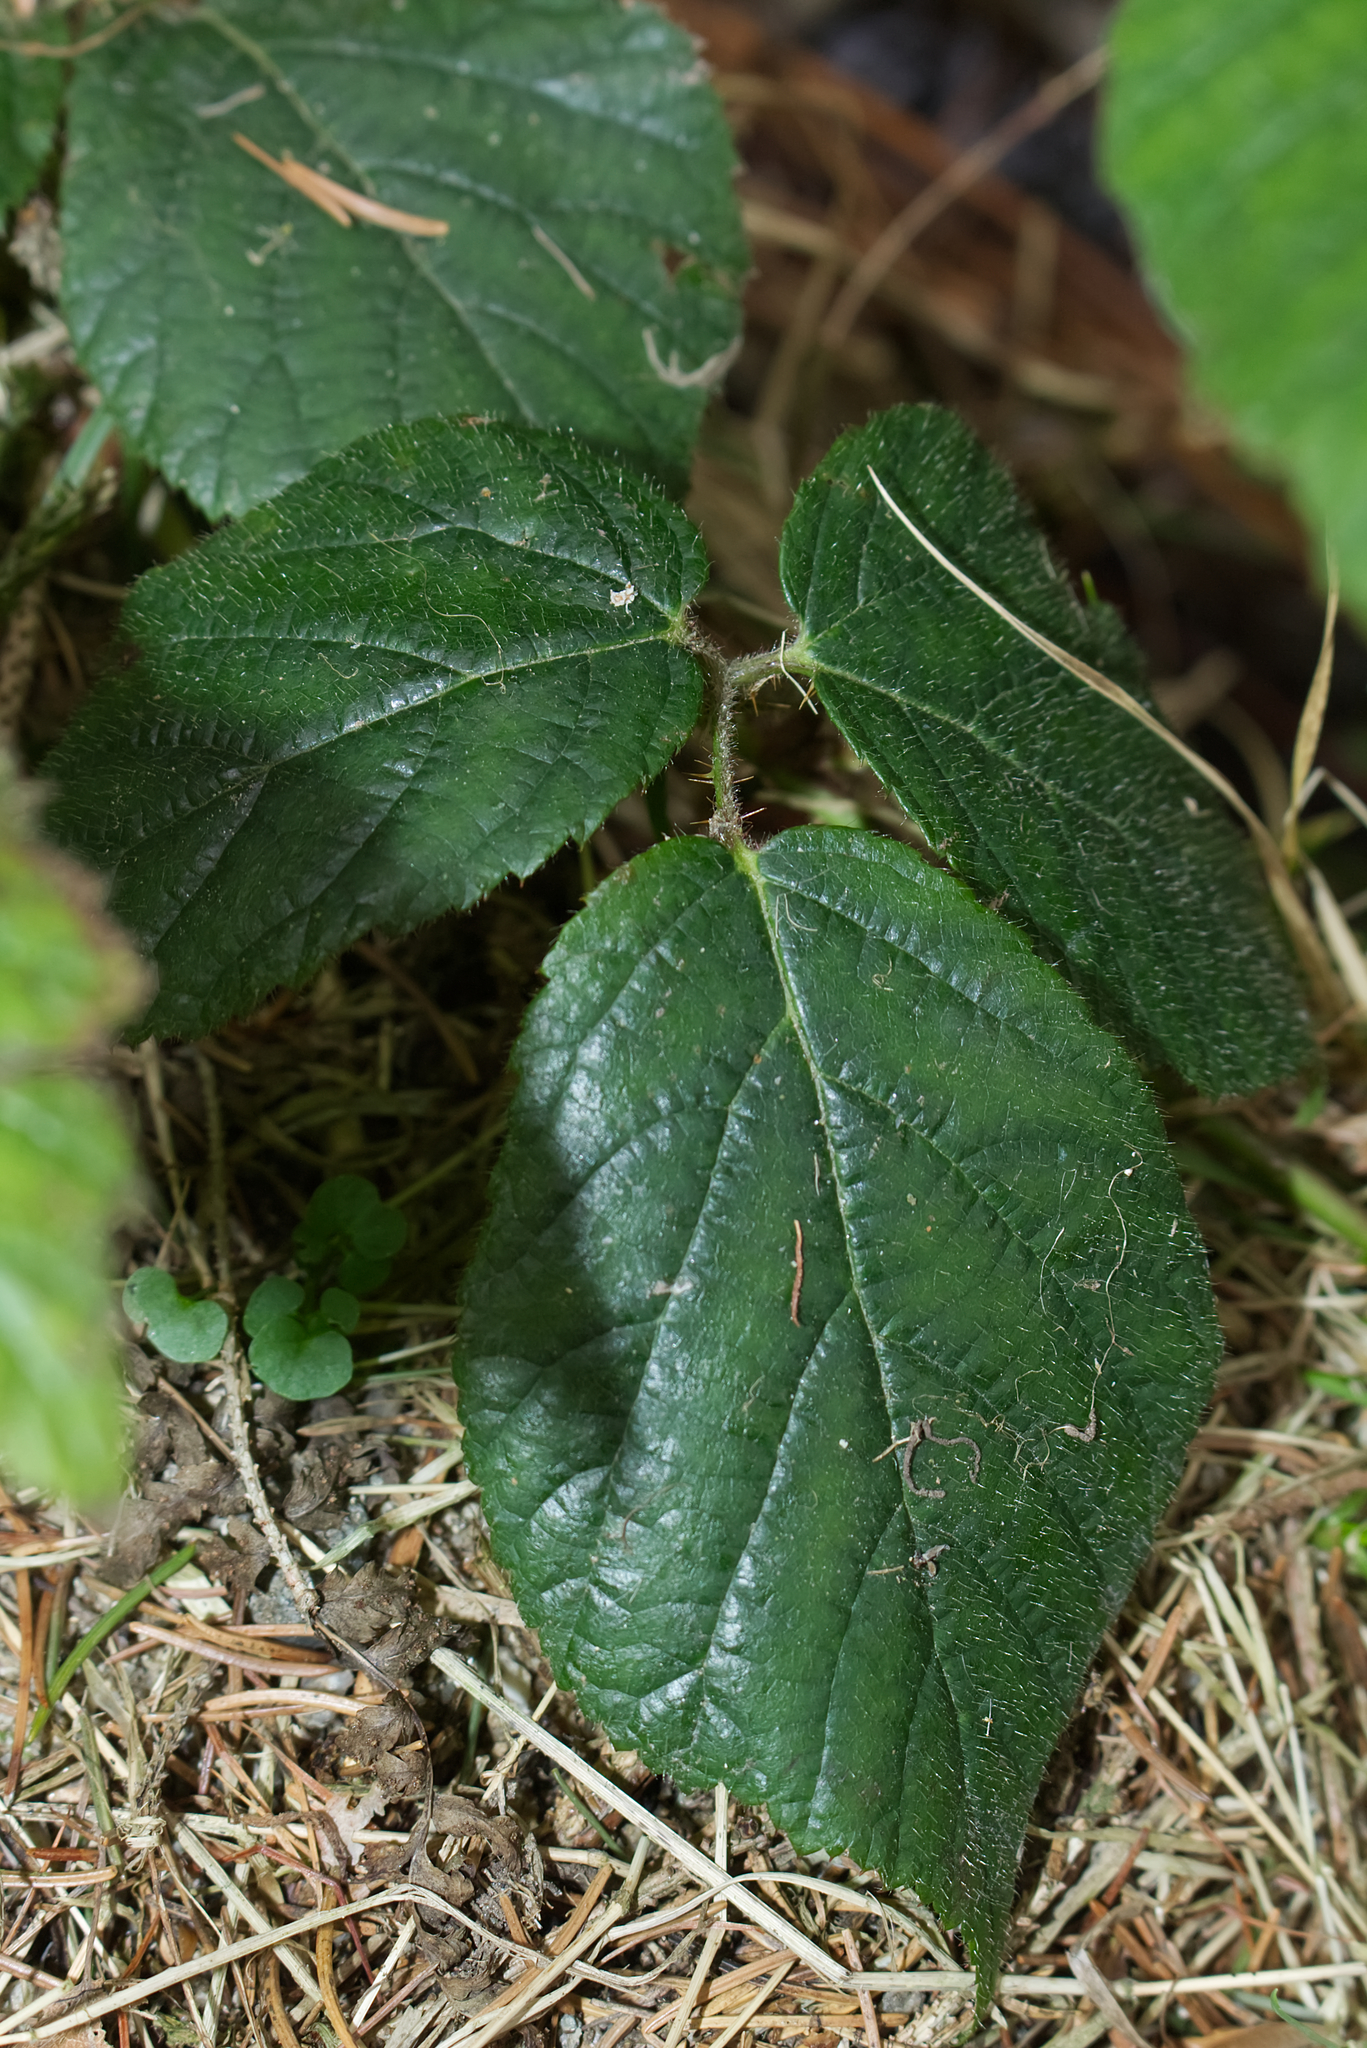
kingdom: Plantae
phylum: Tracheophyta
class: Magnoliopsida
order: Rosales
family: Rosaceae
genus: Rubus
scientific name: Rubus
